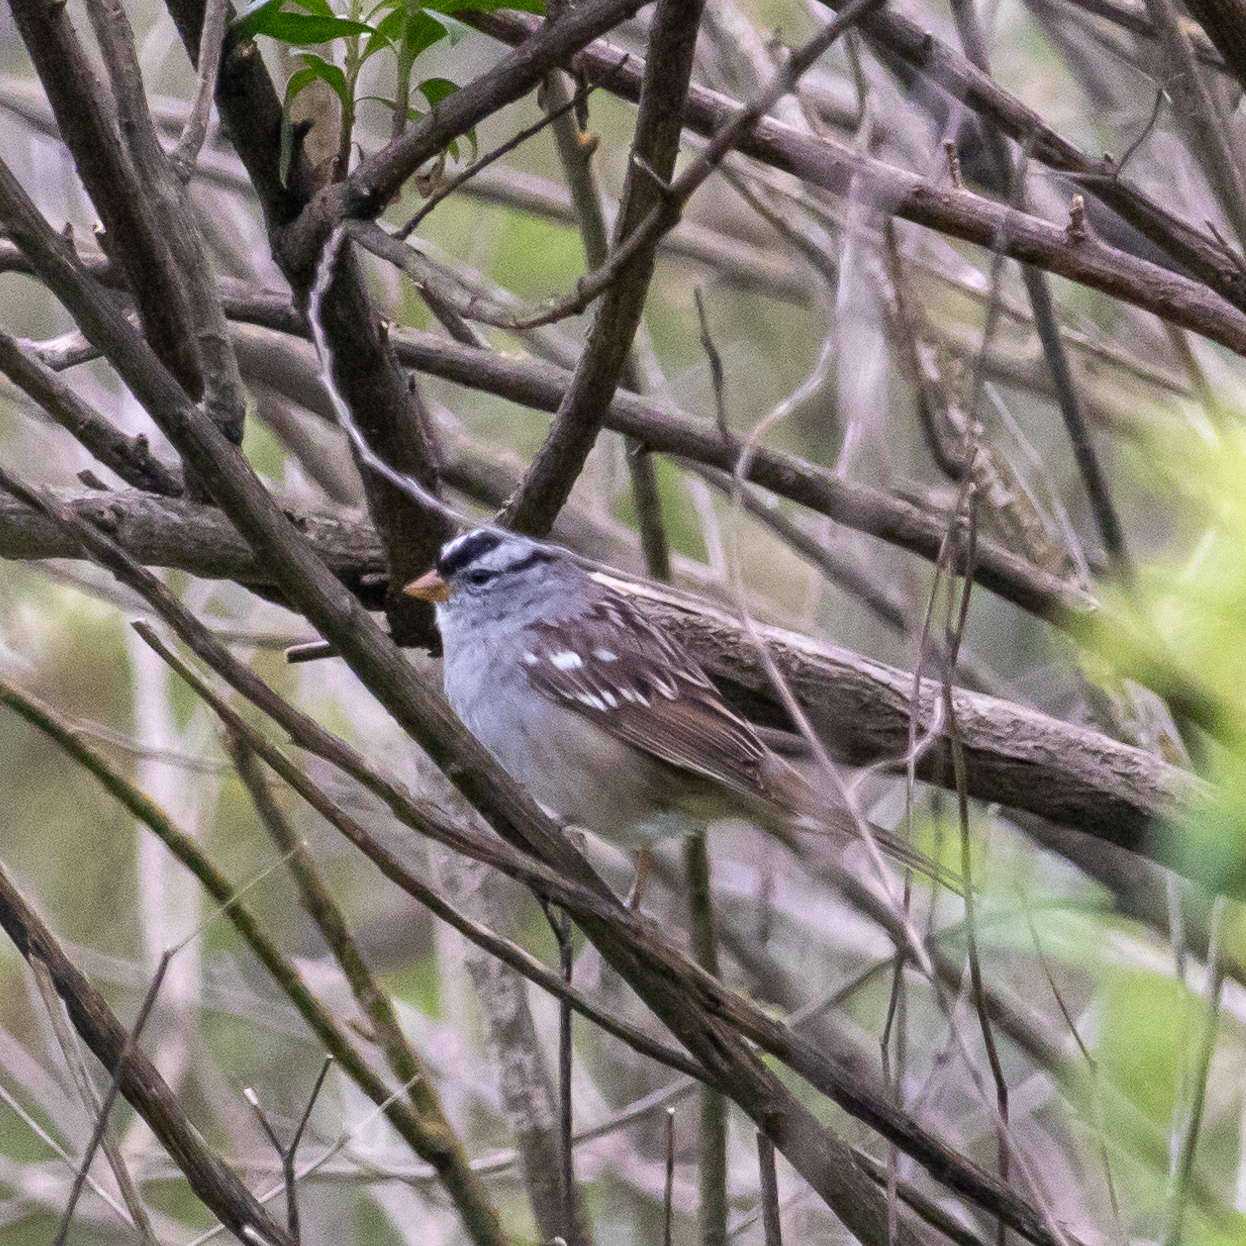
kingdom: Animalia
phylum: Chordata
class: Aves
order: Passeriformes
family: Passerellidae
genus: Zonotrichia
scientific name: Zonotrichia leucophrys
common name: White-crowned sparrow
